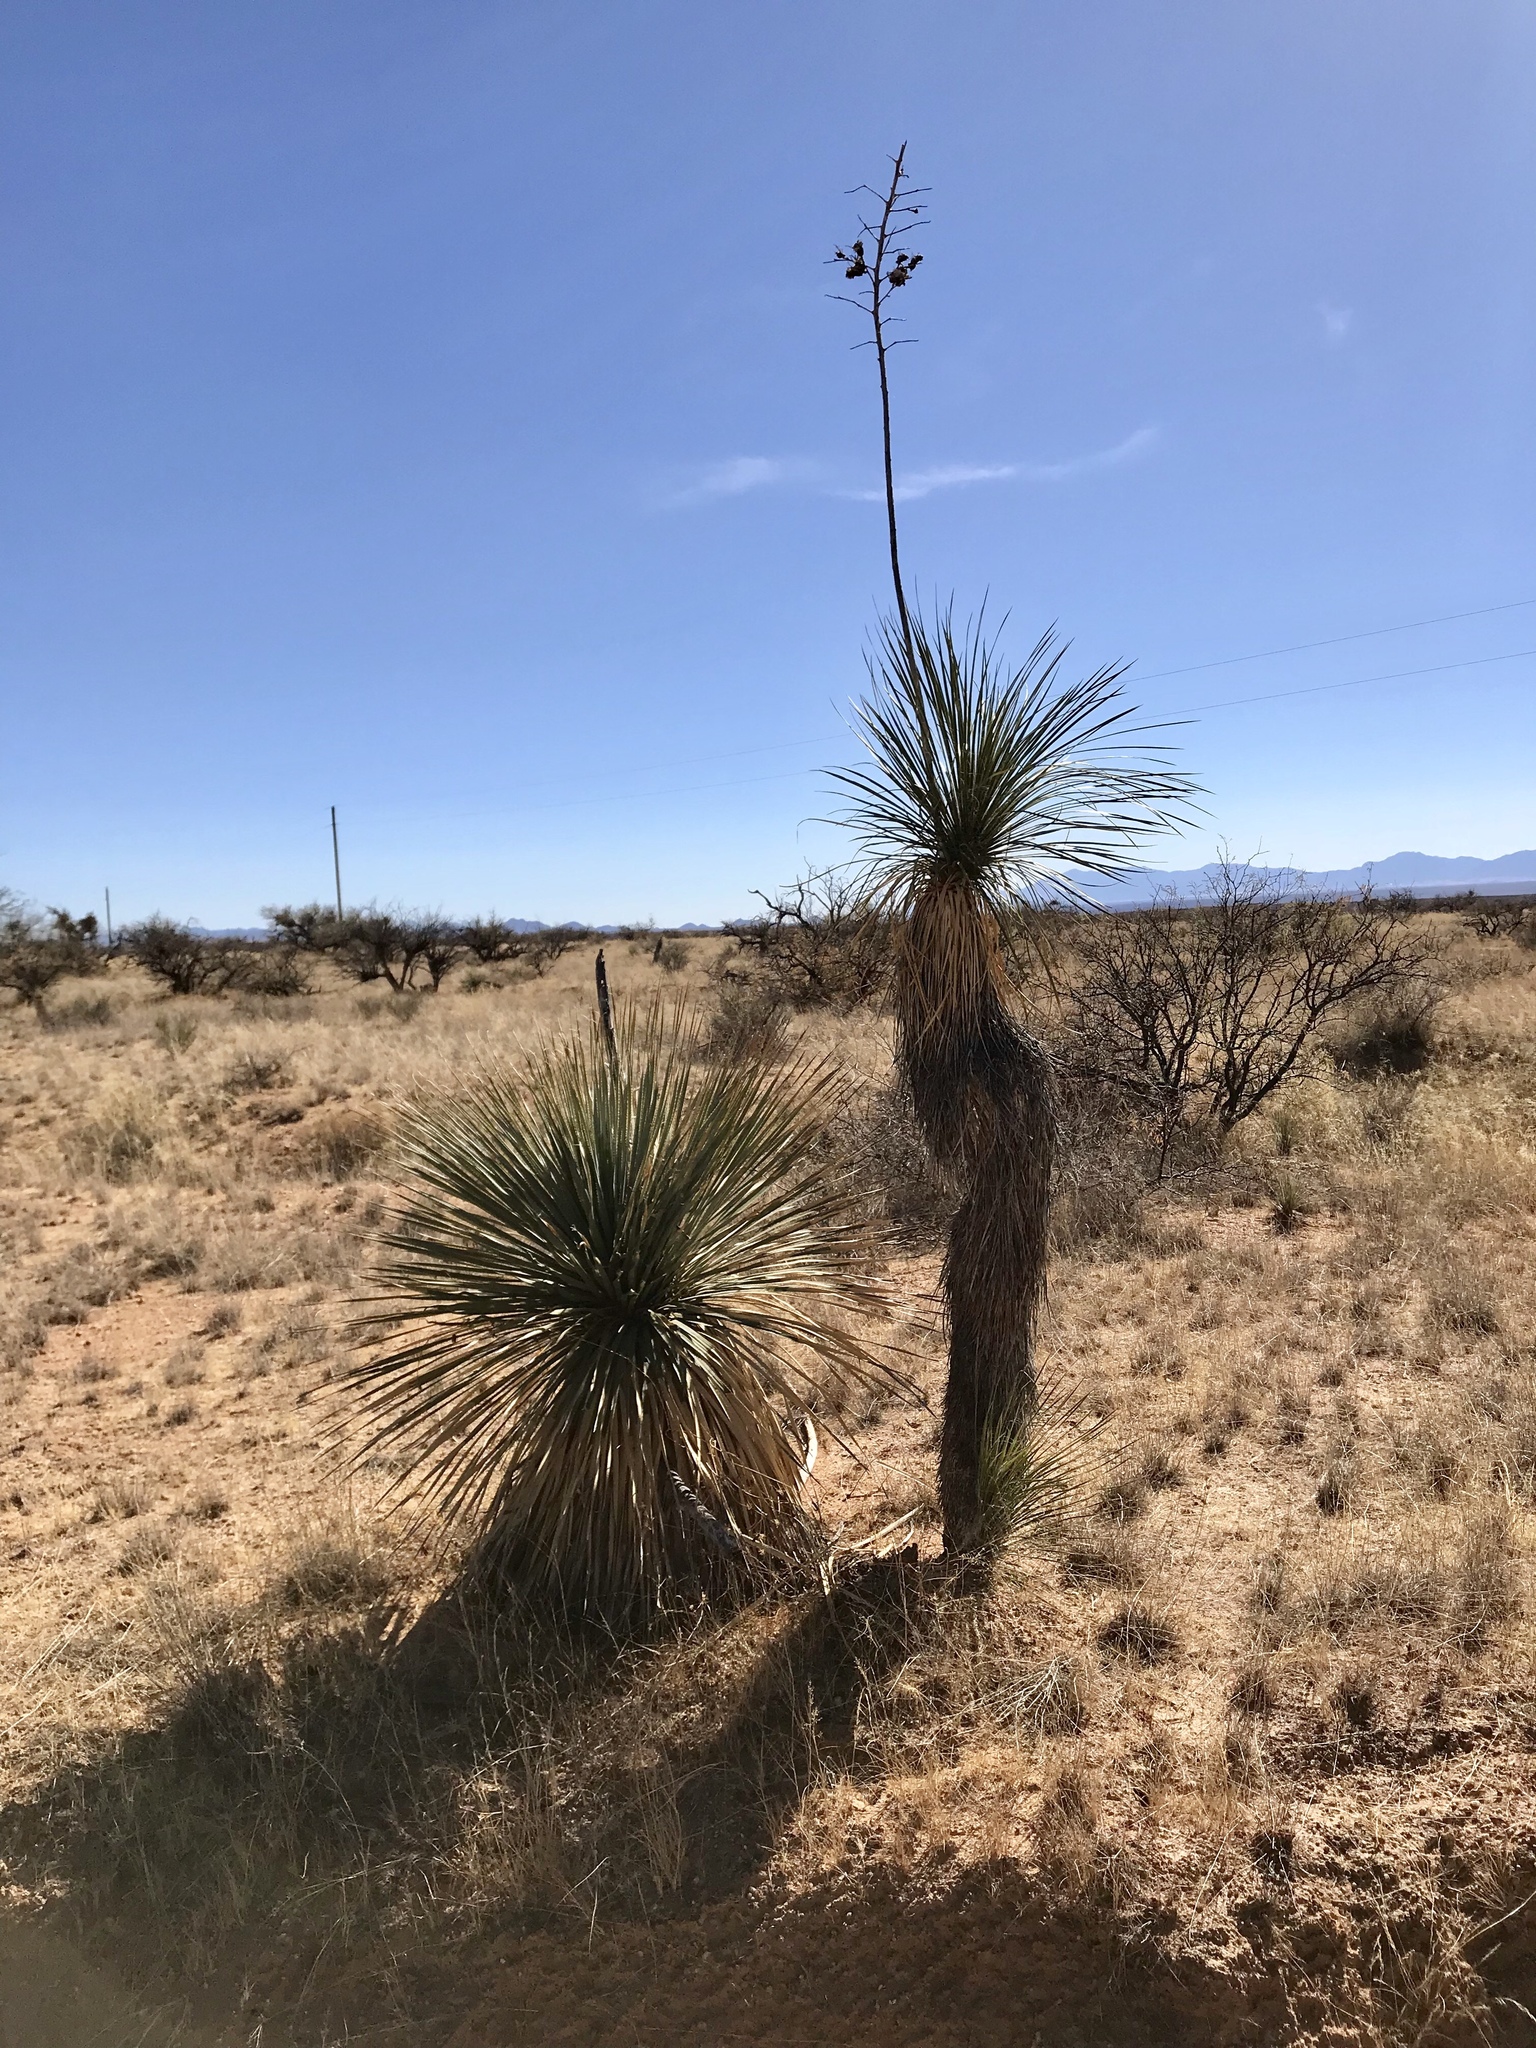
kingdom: Plantae
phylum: Tracheophyta
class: Liliopsida
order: Asparagales
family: Asparagaceae
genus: Yucca
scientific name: Yucca elata
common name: Palmella
